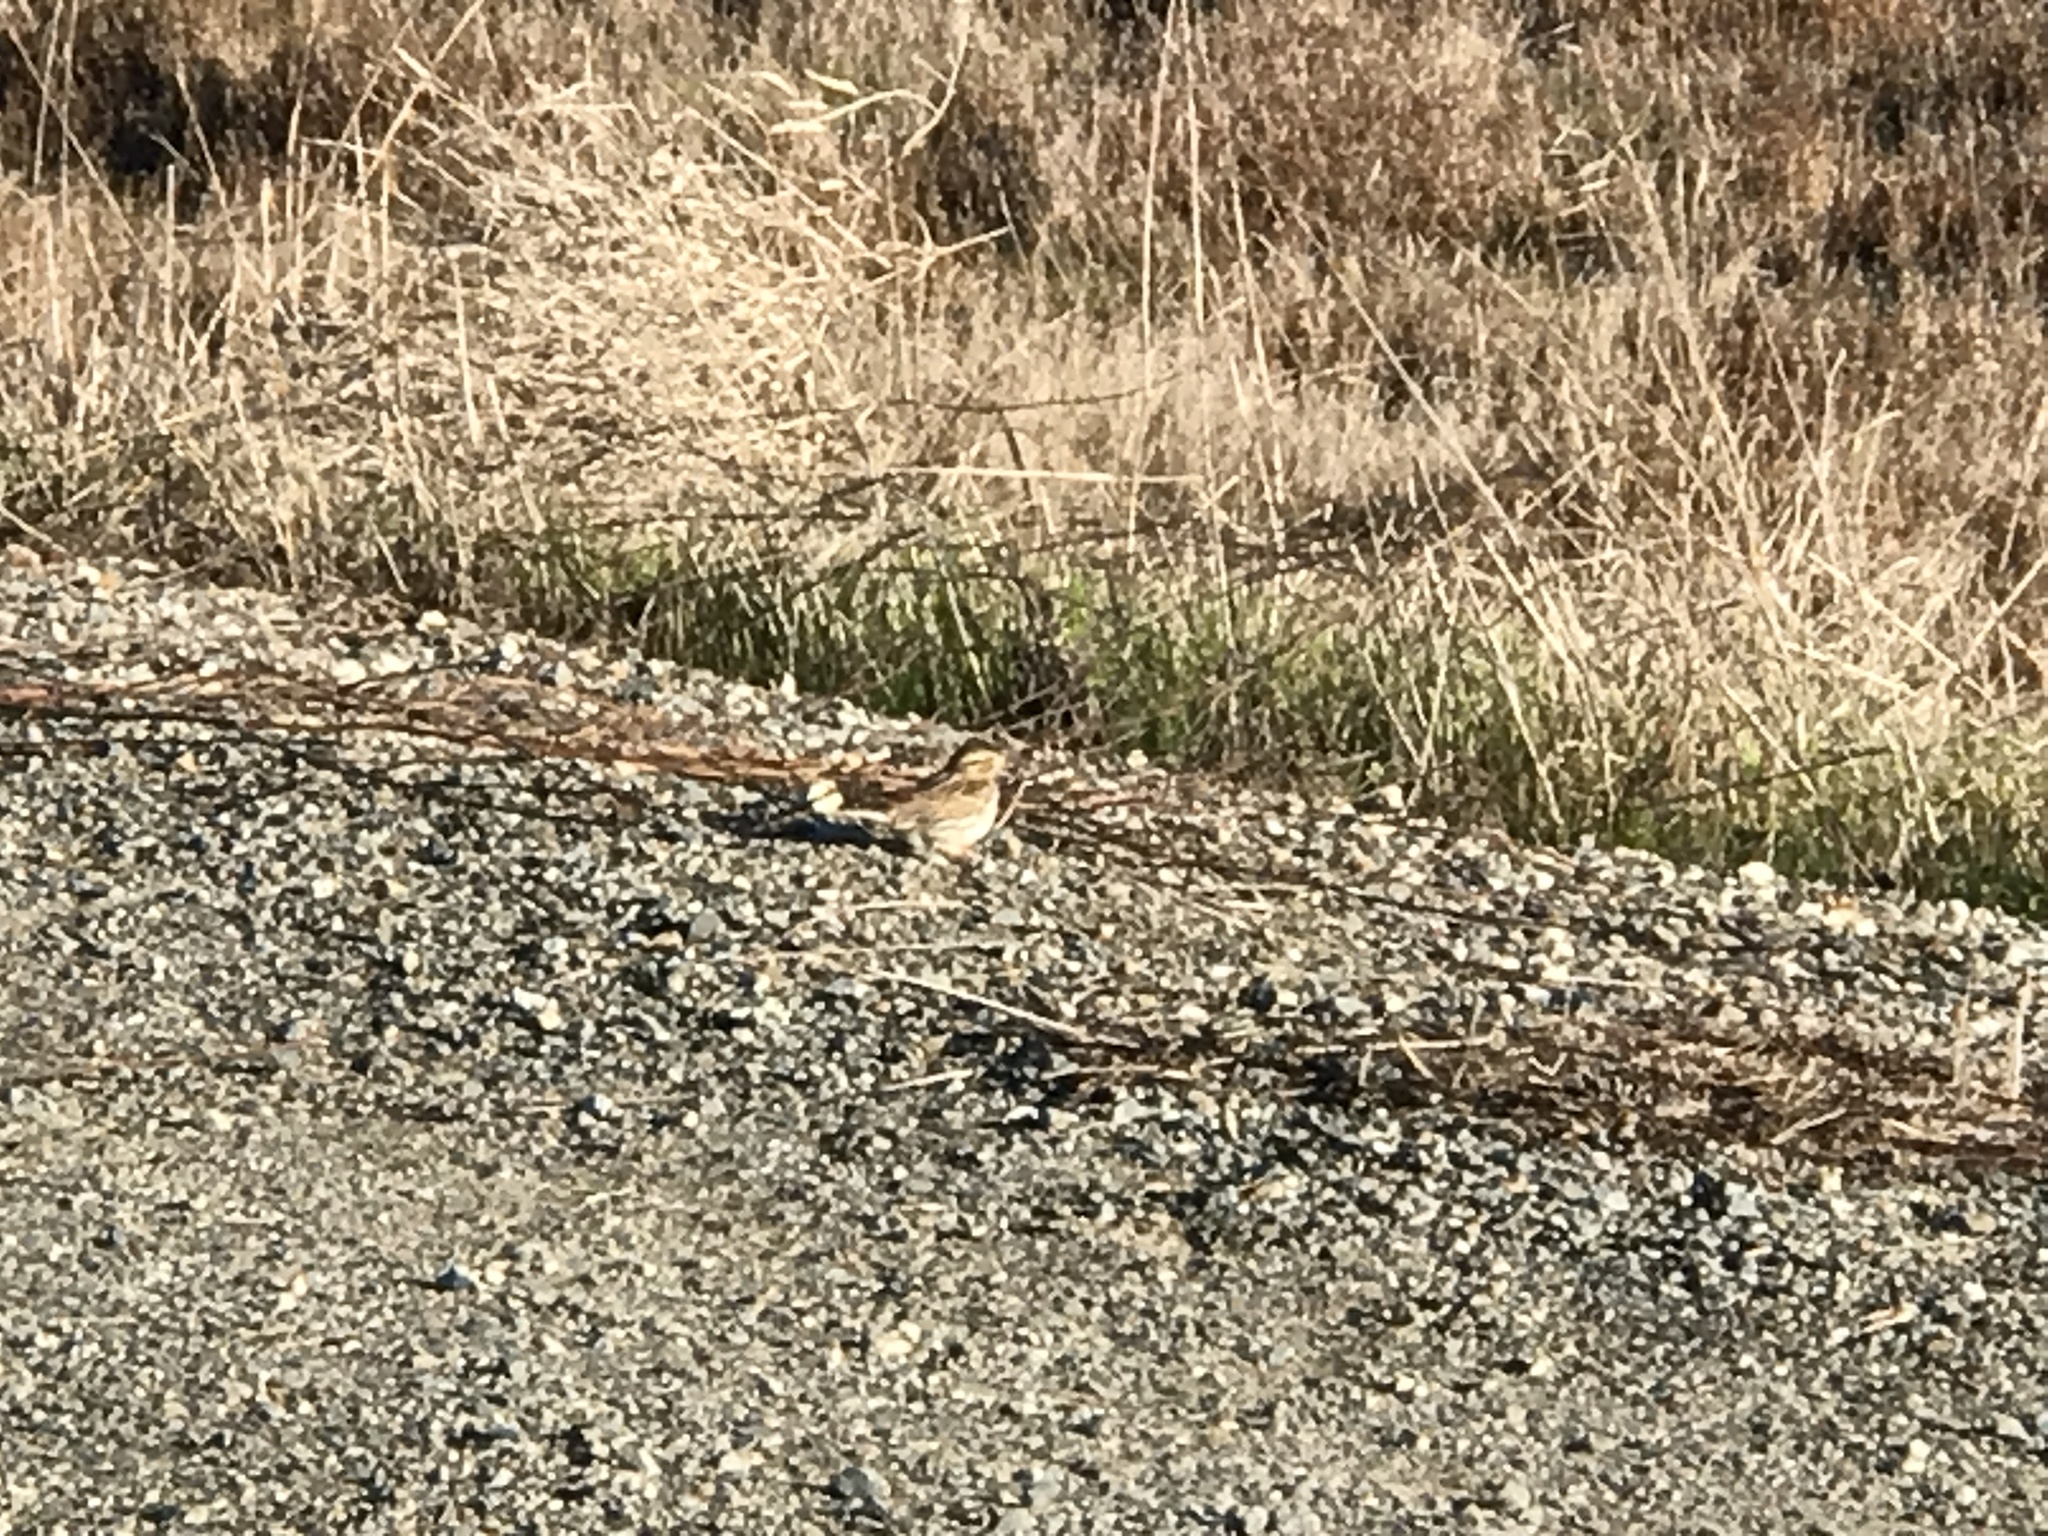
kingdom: Animalia
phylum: Chordata
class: Aves
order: Passeriformes
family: Passerellidae
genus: Passerculus
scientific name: Passerculus sandwichensis
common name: Savannah sparrow
